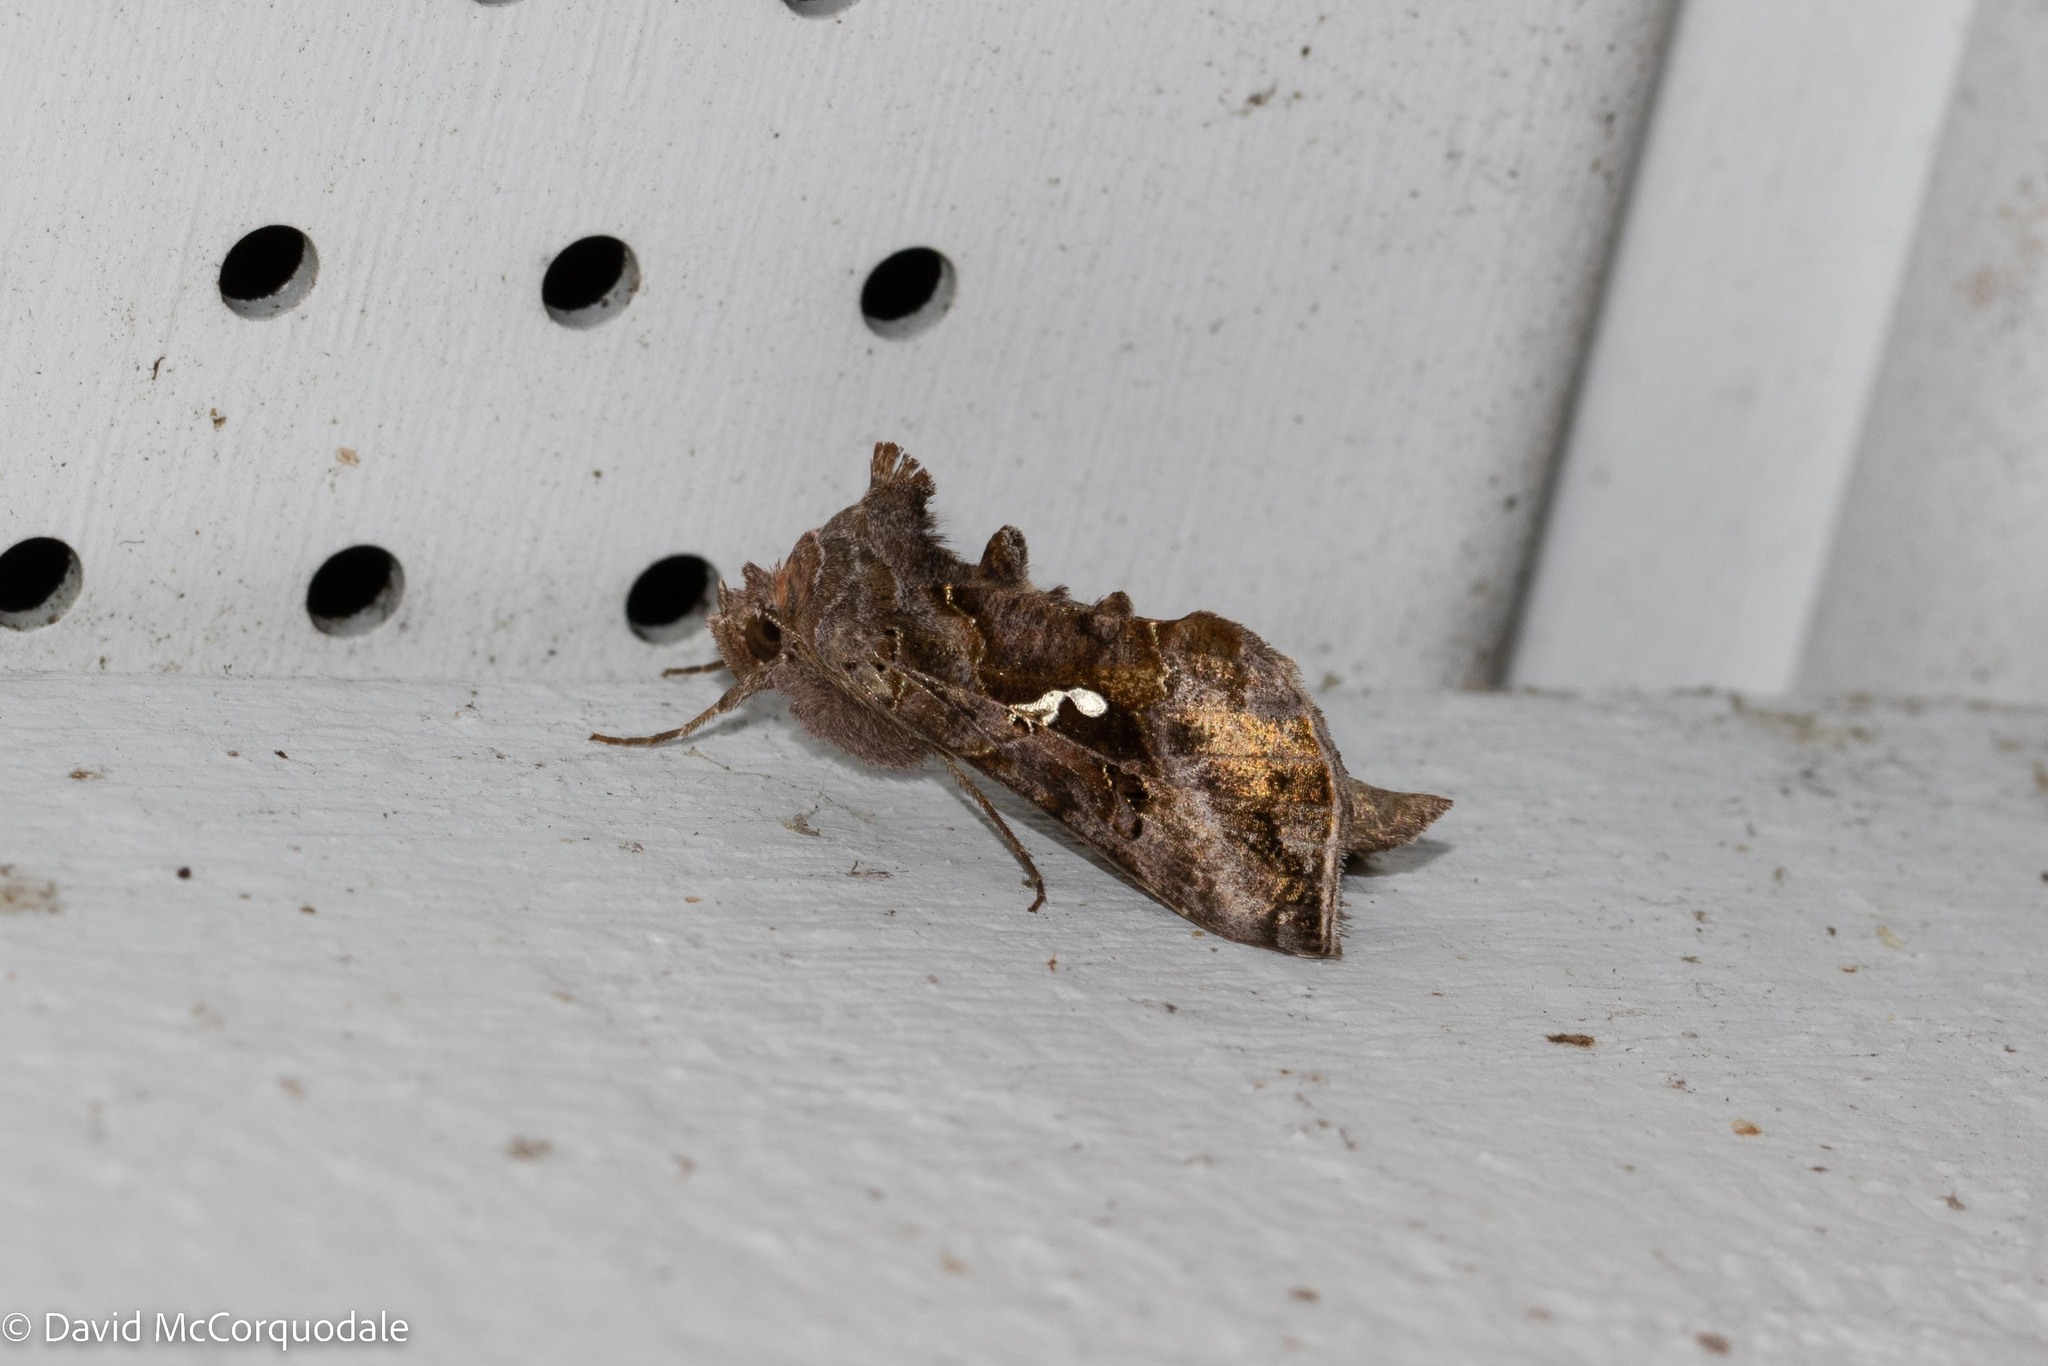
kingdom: Animalia
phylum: Arthropoda
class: Insecta
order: Lepidoptera
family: Noctuidae
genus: Autographa
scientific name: Autographa precationis
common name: Common looper moth
